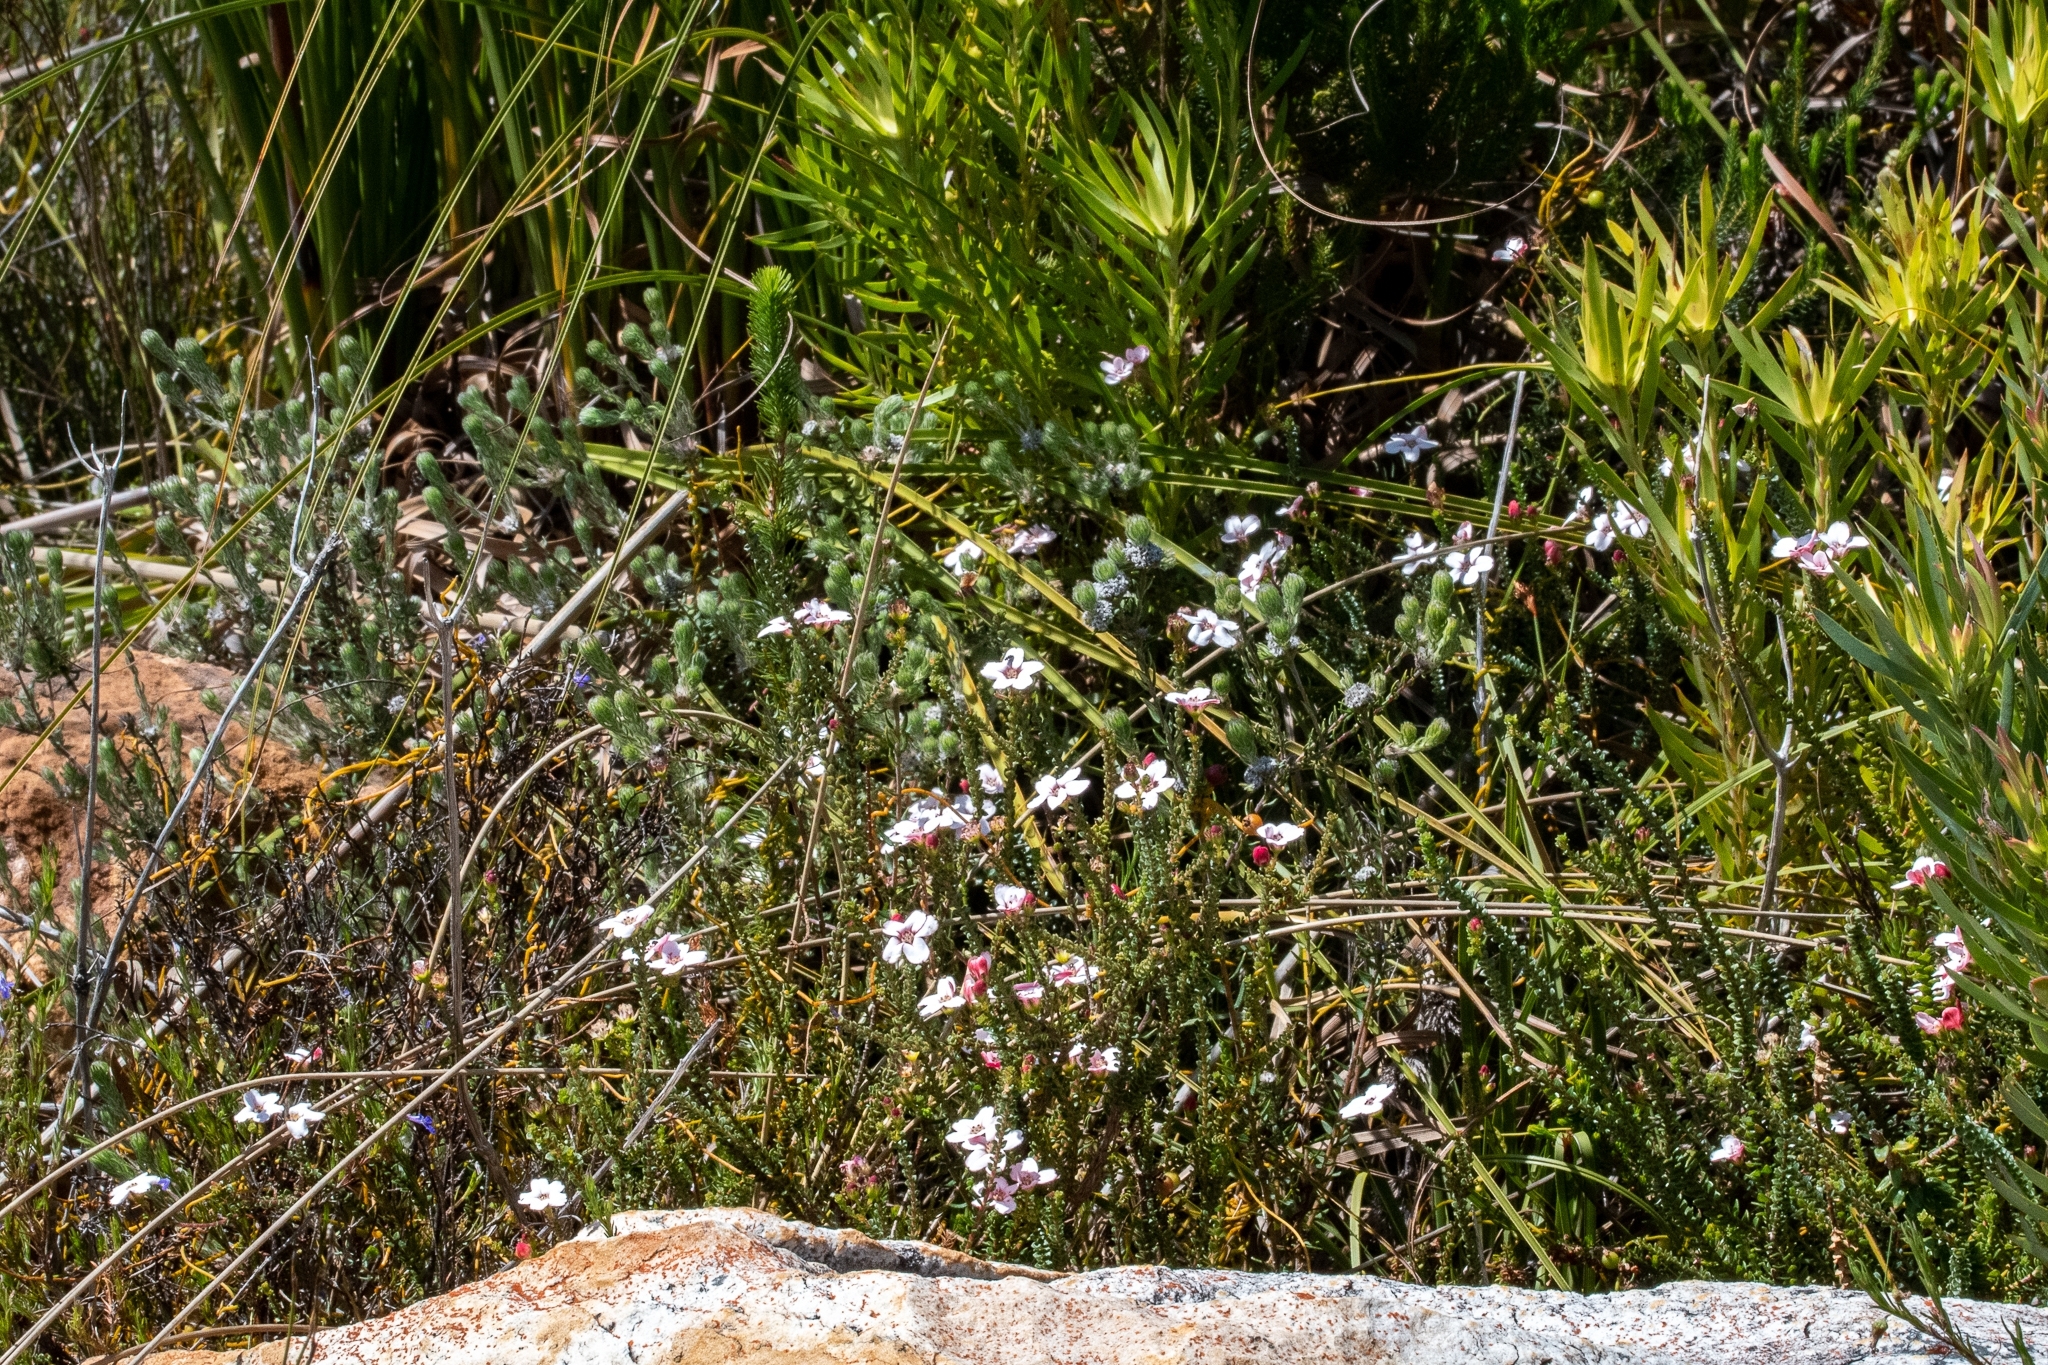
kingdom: Plantae
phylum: Tracheophyta
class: Magnoliopsida
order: Sapindales
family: Rutaceae
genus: Adenandra
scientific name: Adenandra brachyphylla
